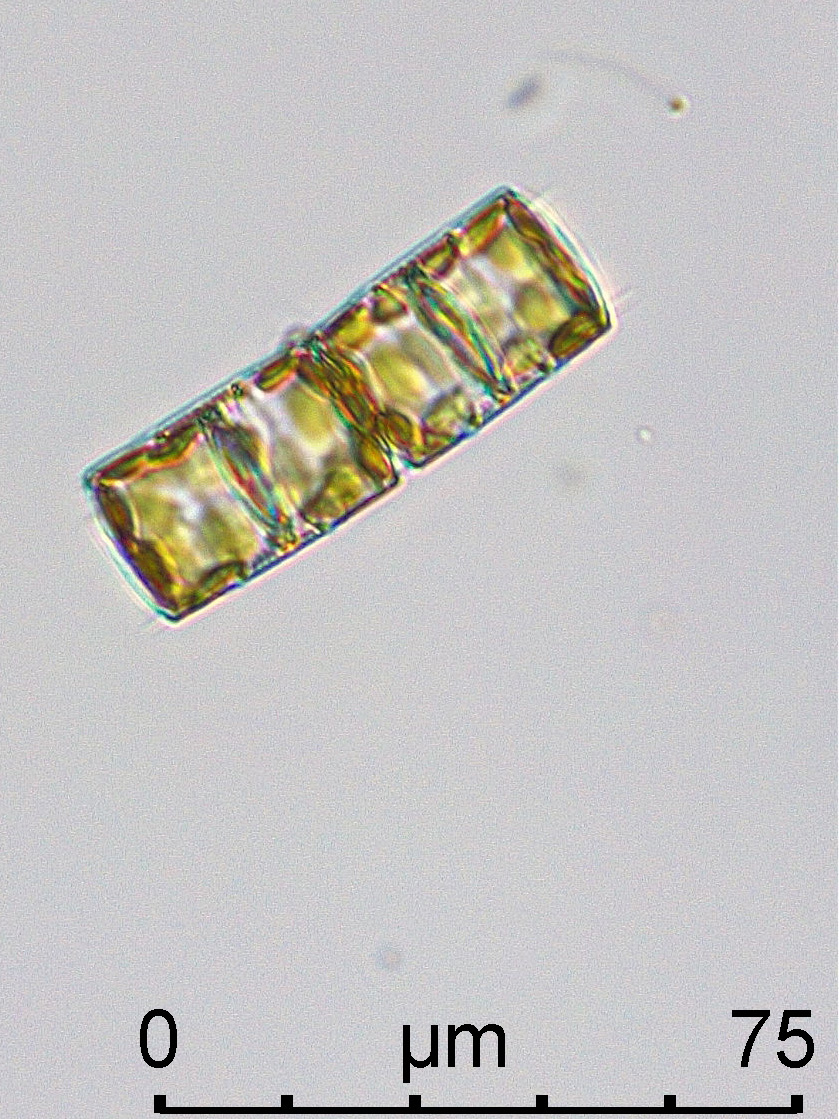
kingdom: Chromista
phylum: Ochrophyta
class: Bacillariophyceae
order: Melosirales
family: Melosiraceae
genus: Melosira
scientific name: Melosira varians
